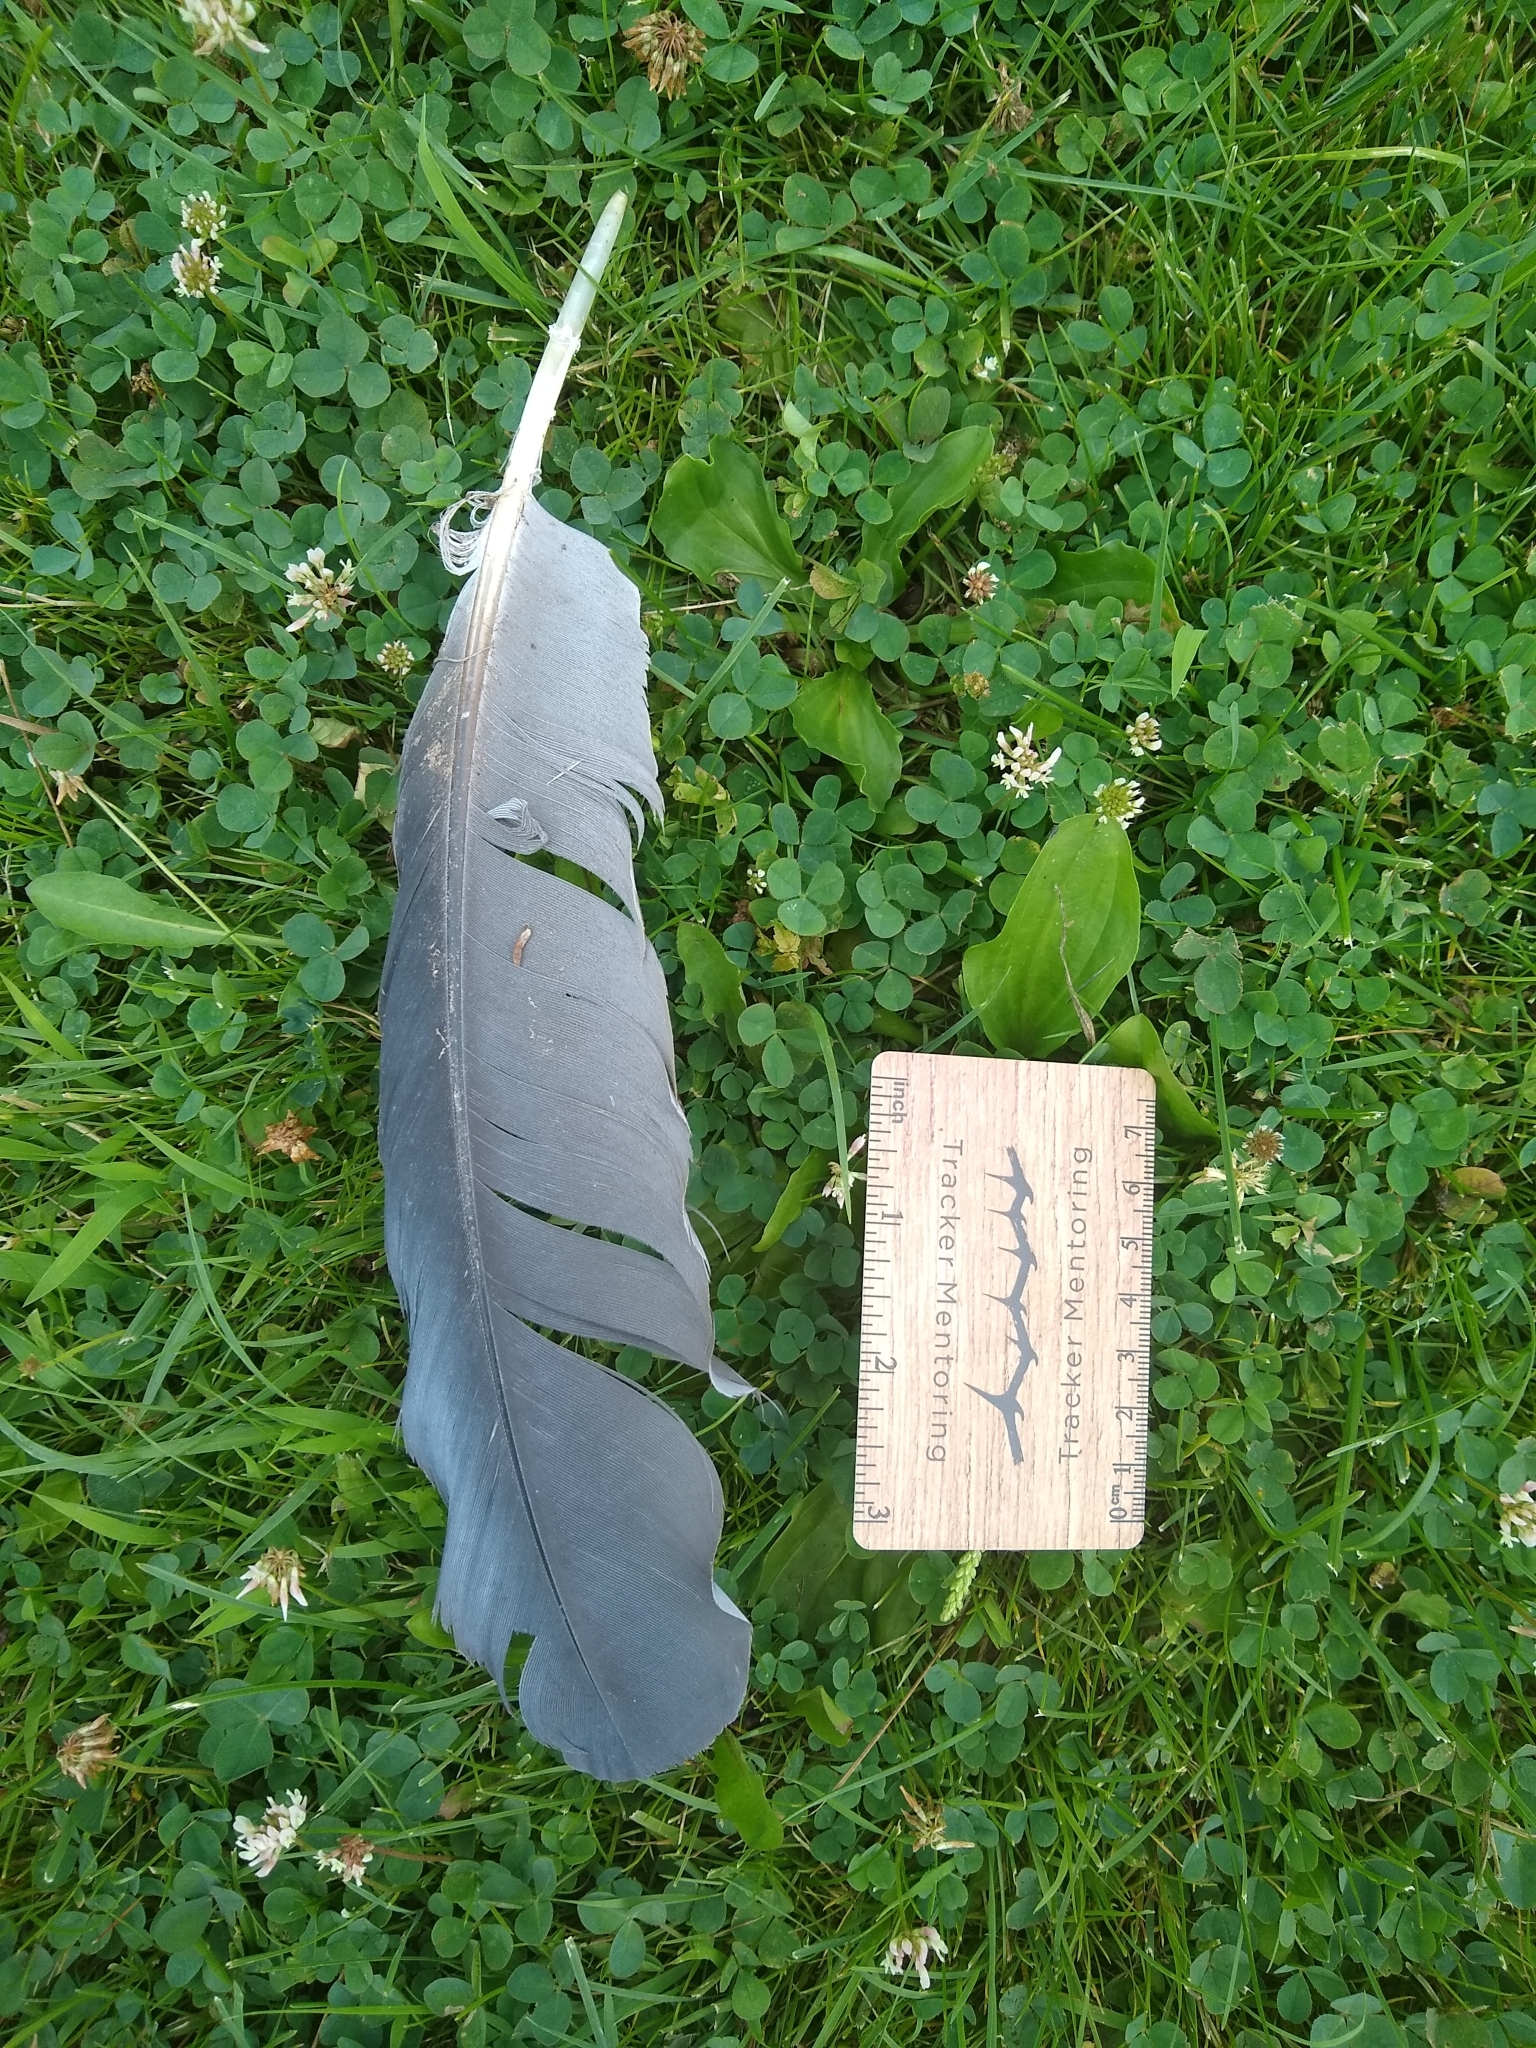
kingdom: Animalia
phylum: Chordata
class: Aves
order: Pelecaniformes
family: Ardeidae
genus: Ardea
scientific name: Ardea herodias
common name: Great blue heron
